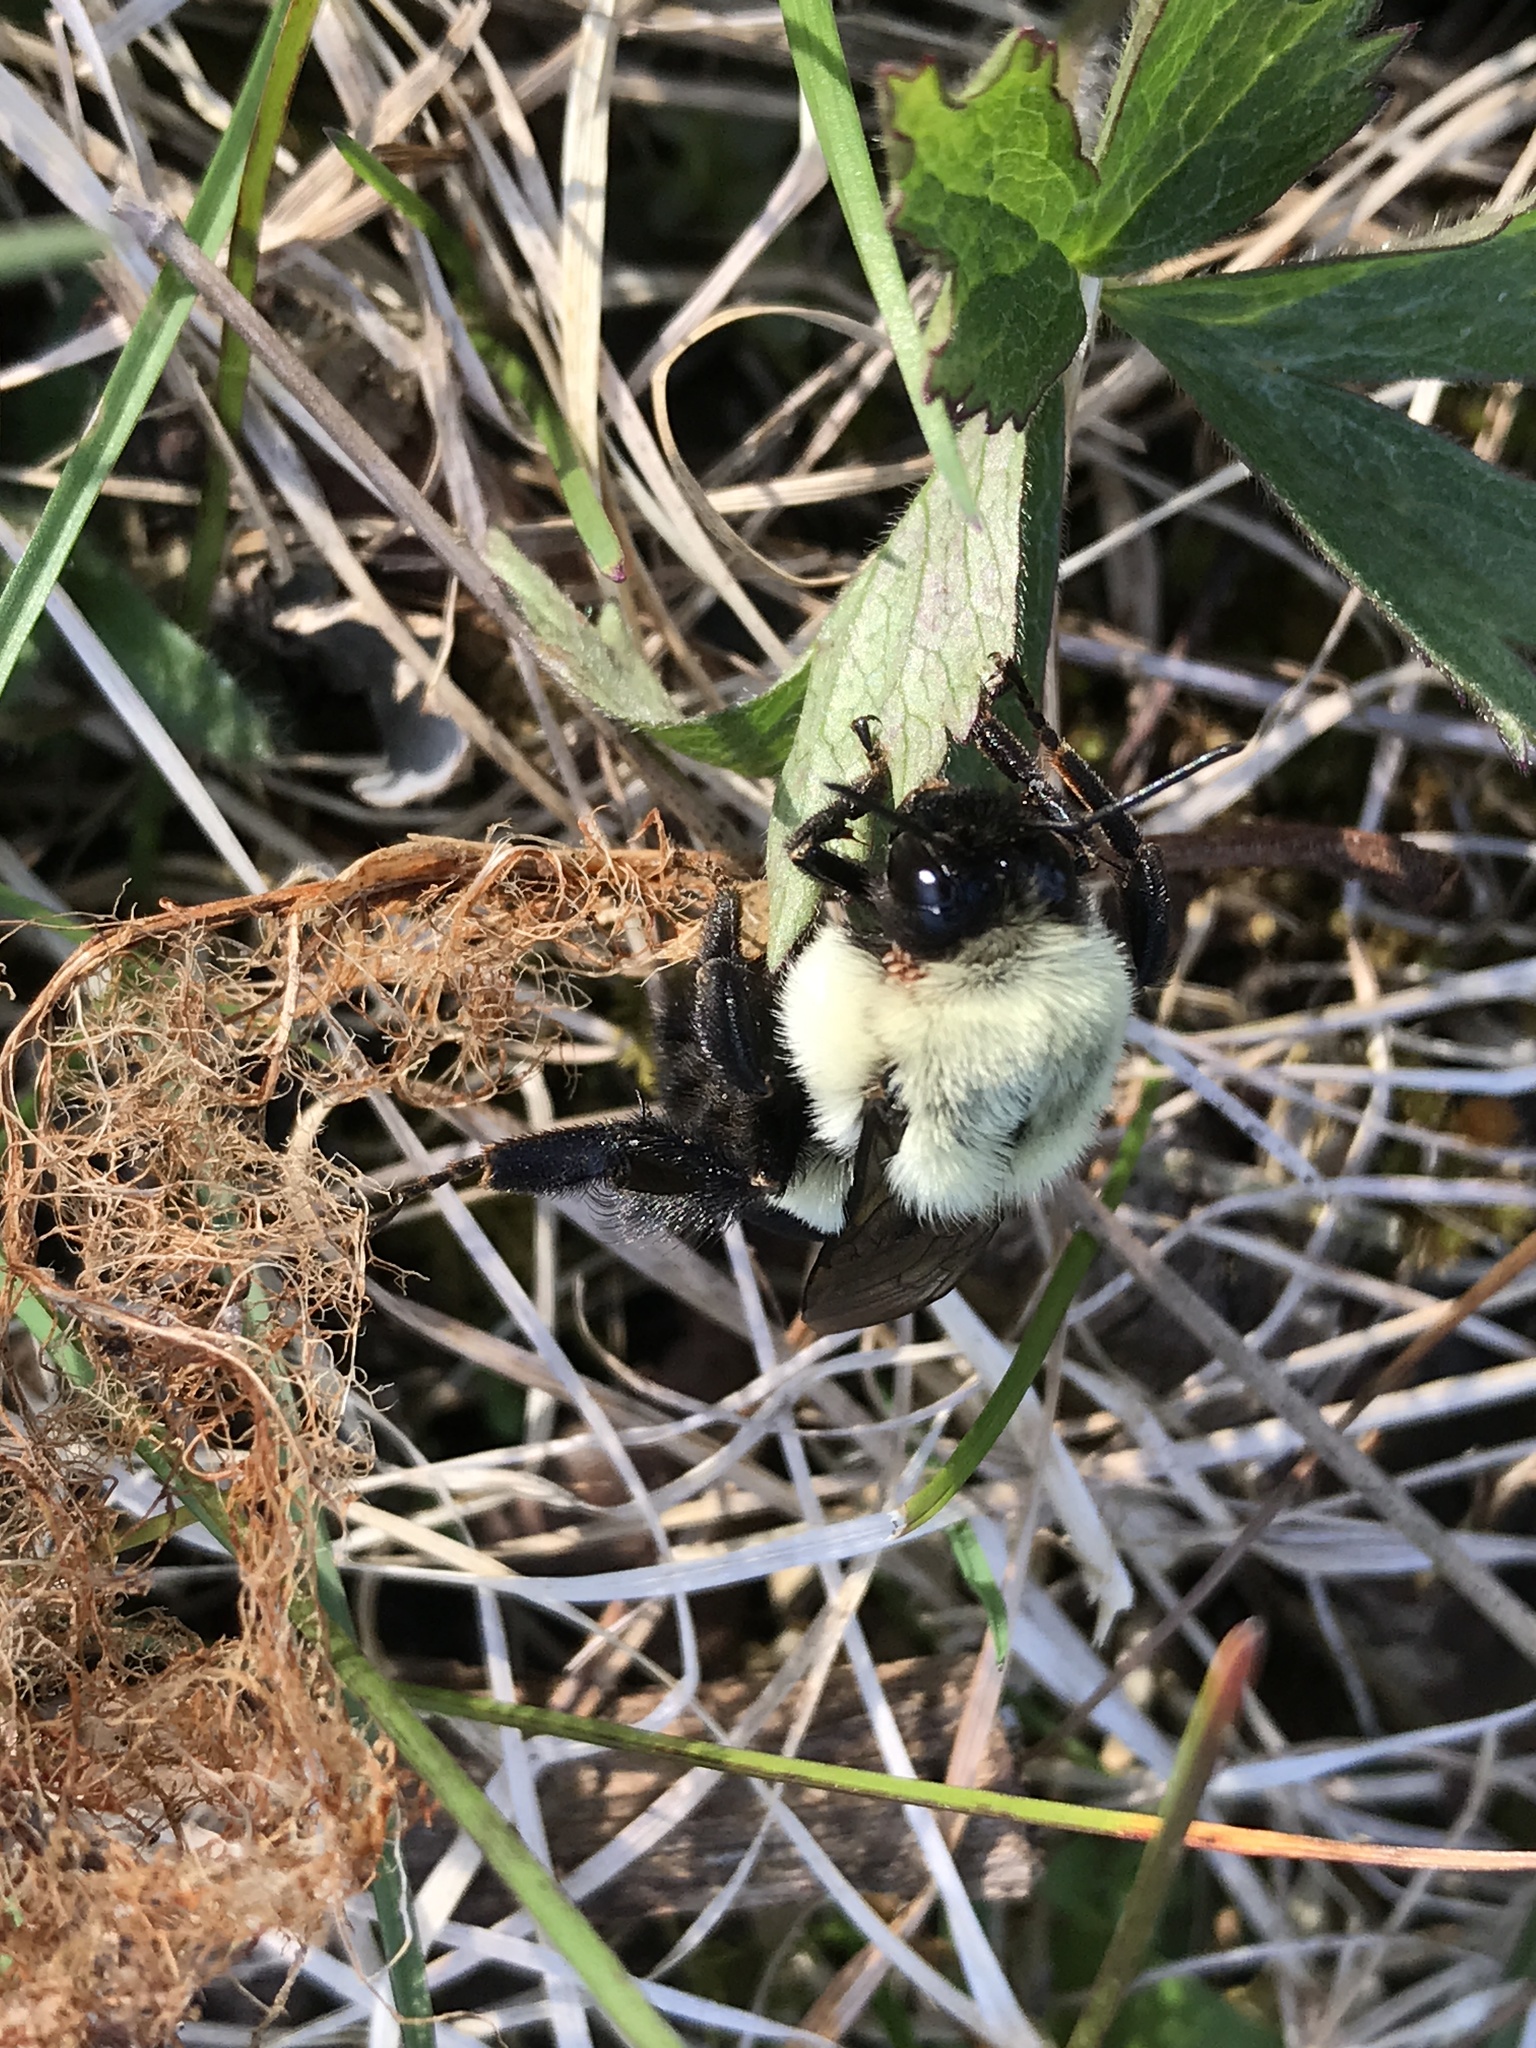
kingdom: Animalia
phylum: Arthropoda
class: Insecta
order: Hymenoptera
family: Apidae
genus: Bombus
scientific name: Bombus impatiens
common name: Common eastern bumble bee
